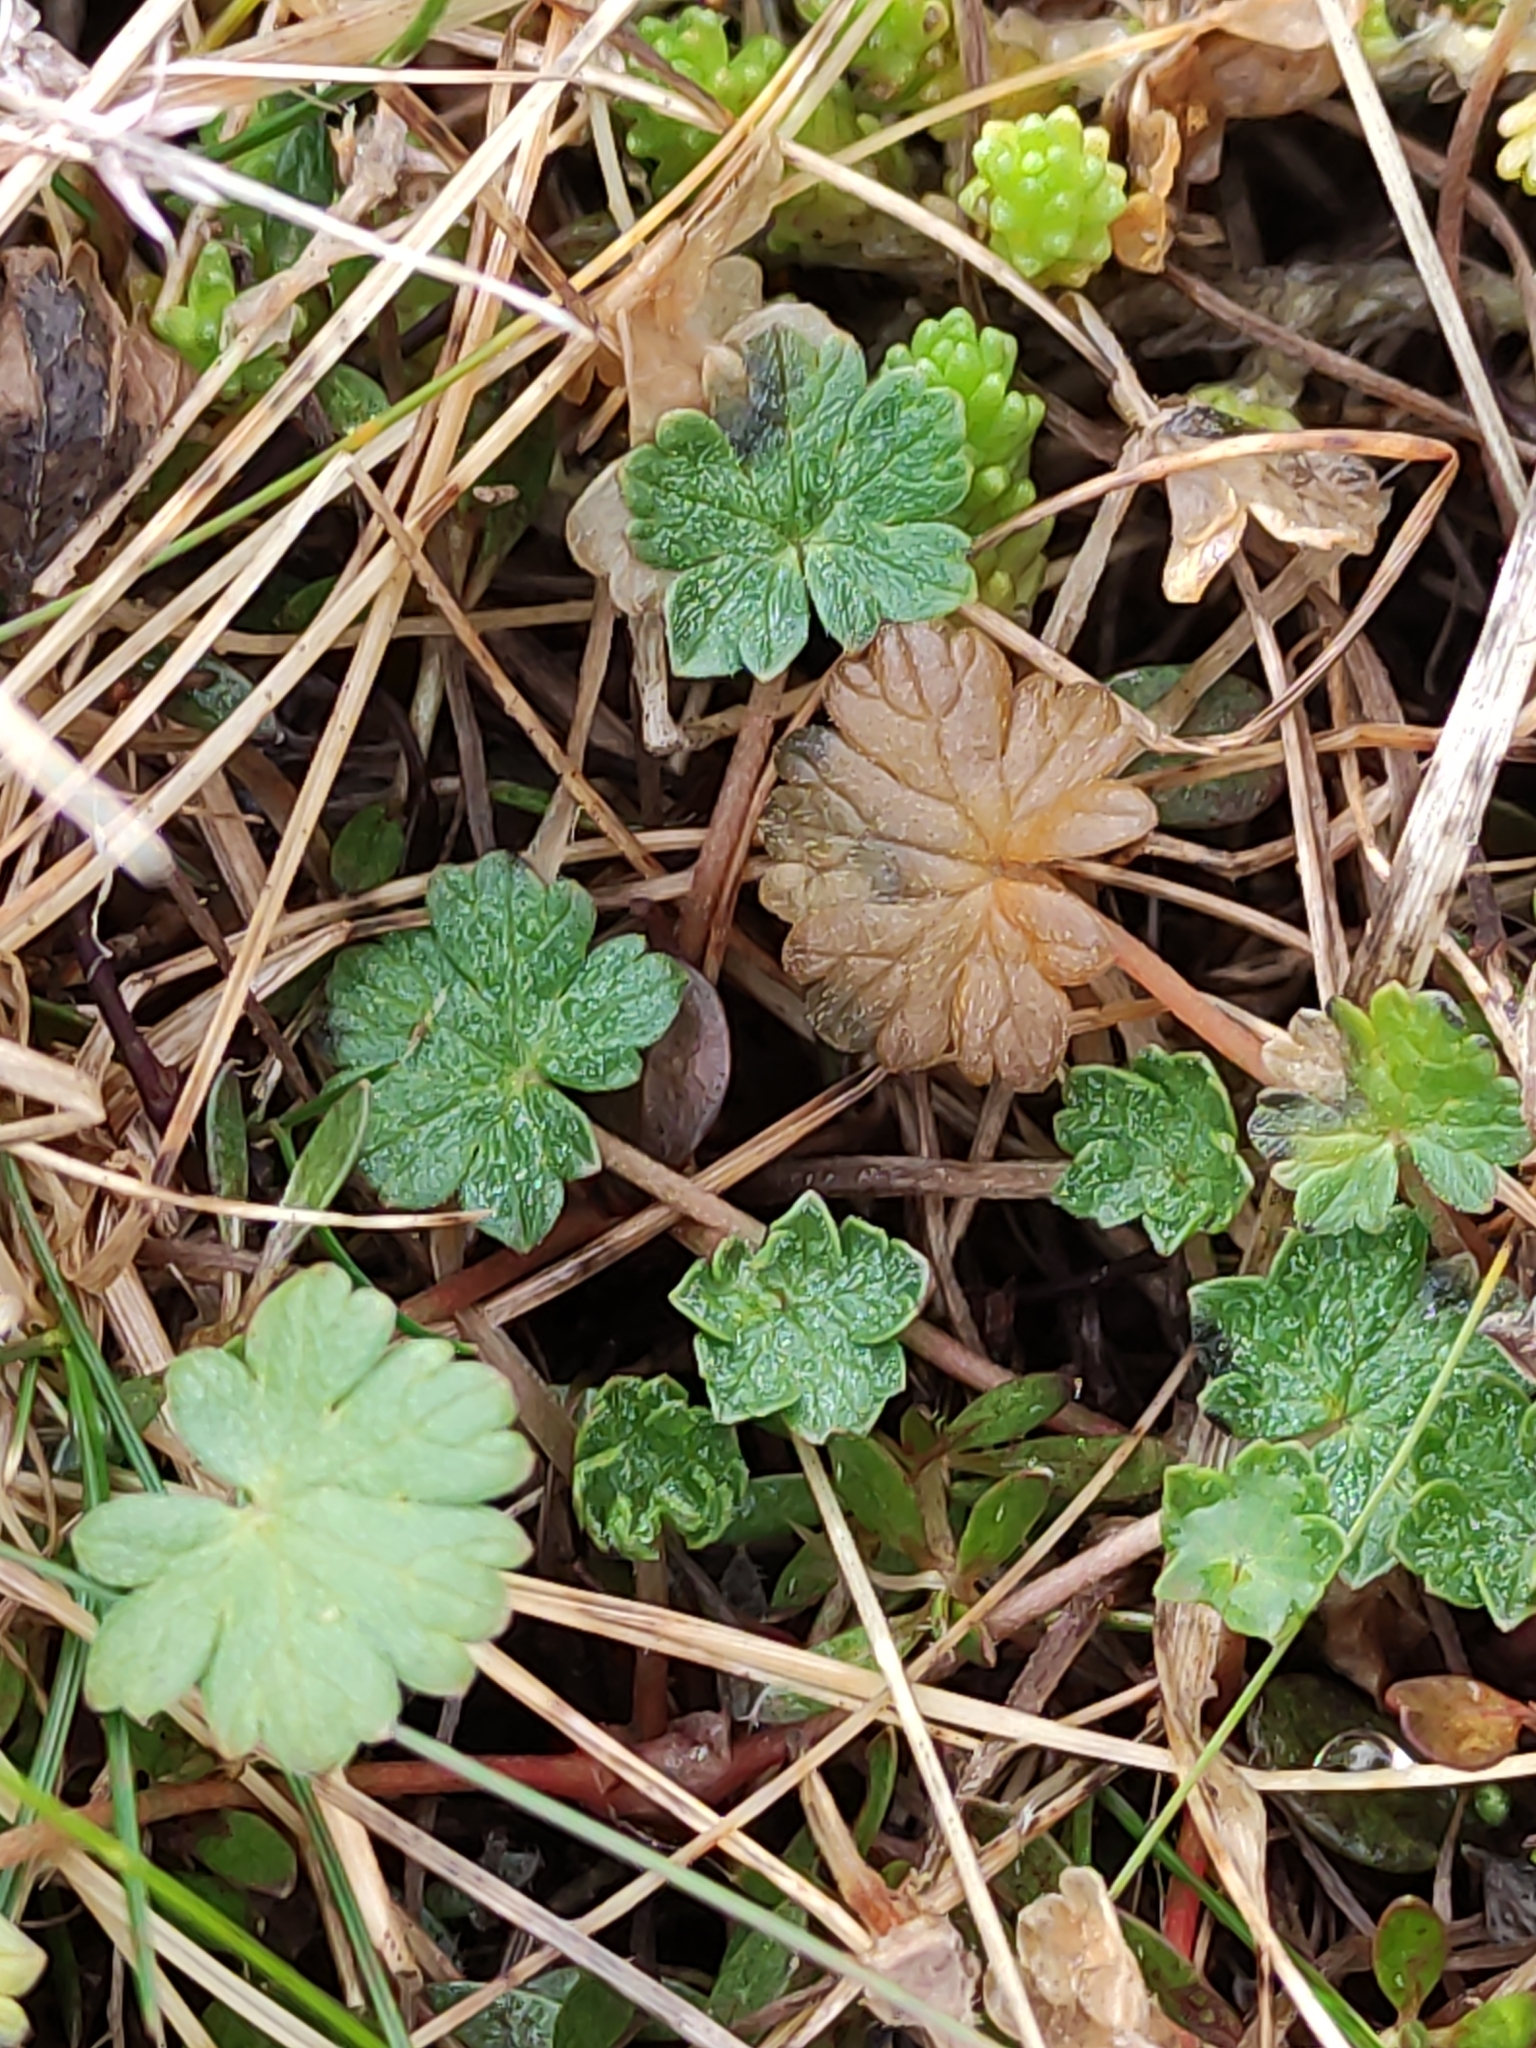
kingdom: Plantae
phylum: Tracheophyta
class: Magnoliopsida
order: Geraniales
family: Geraniaceae
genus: Geranium
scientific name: Geranium brevicaule
